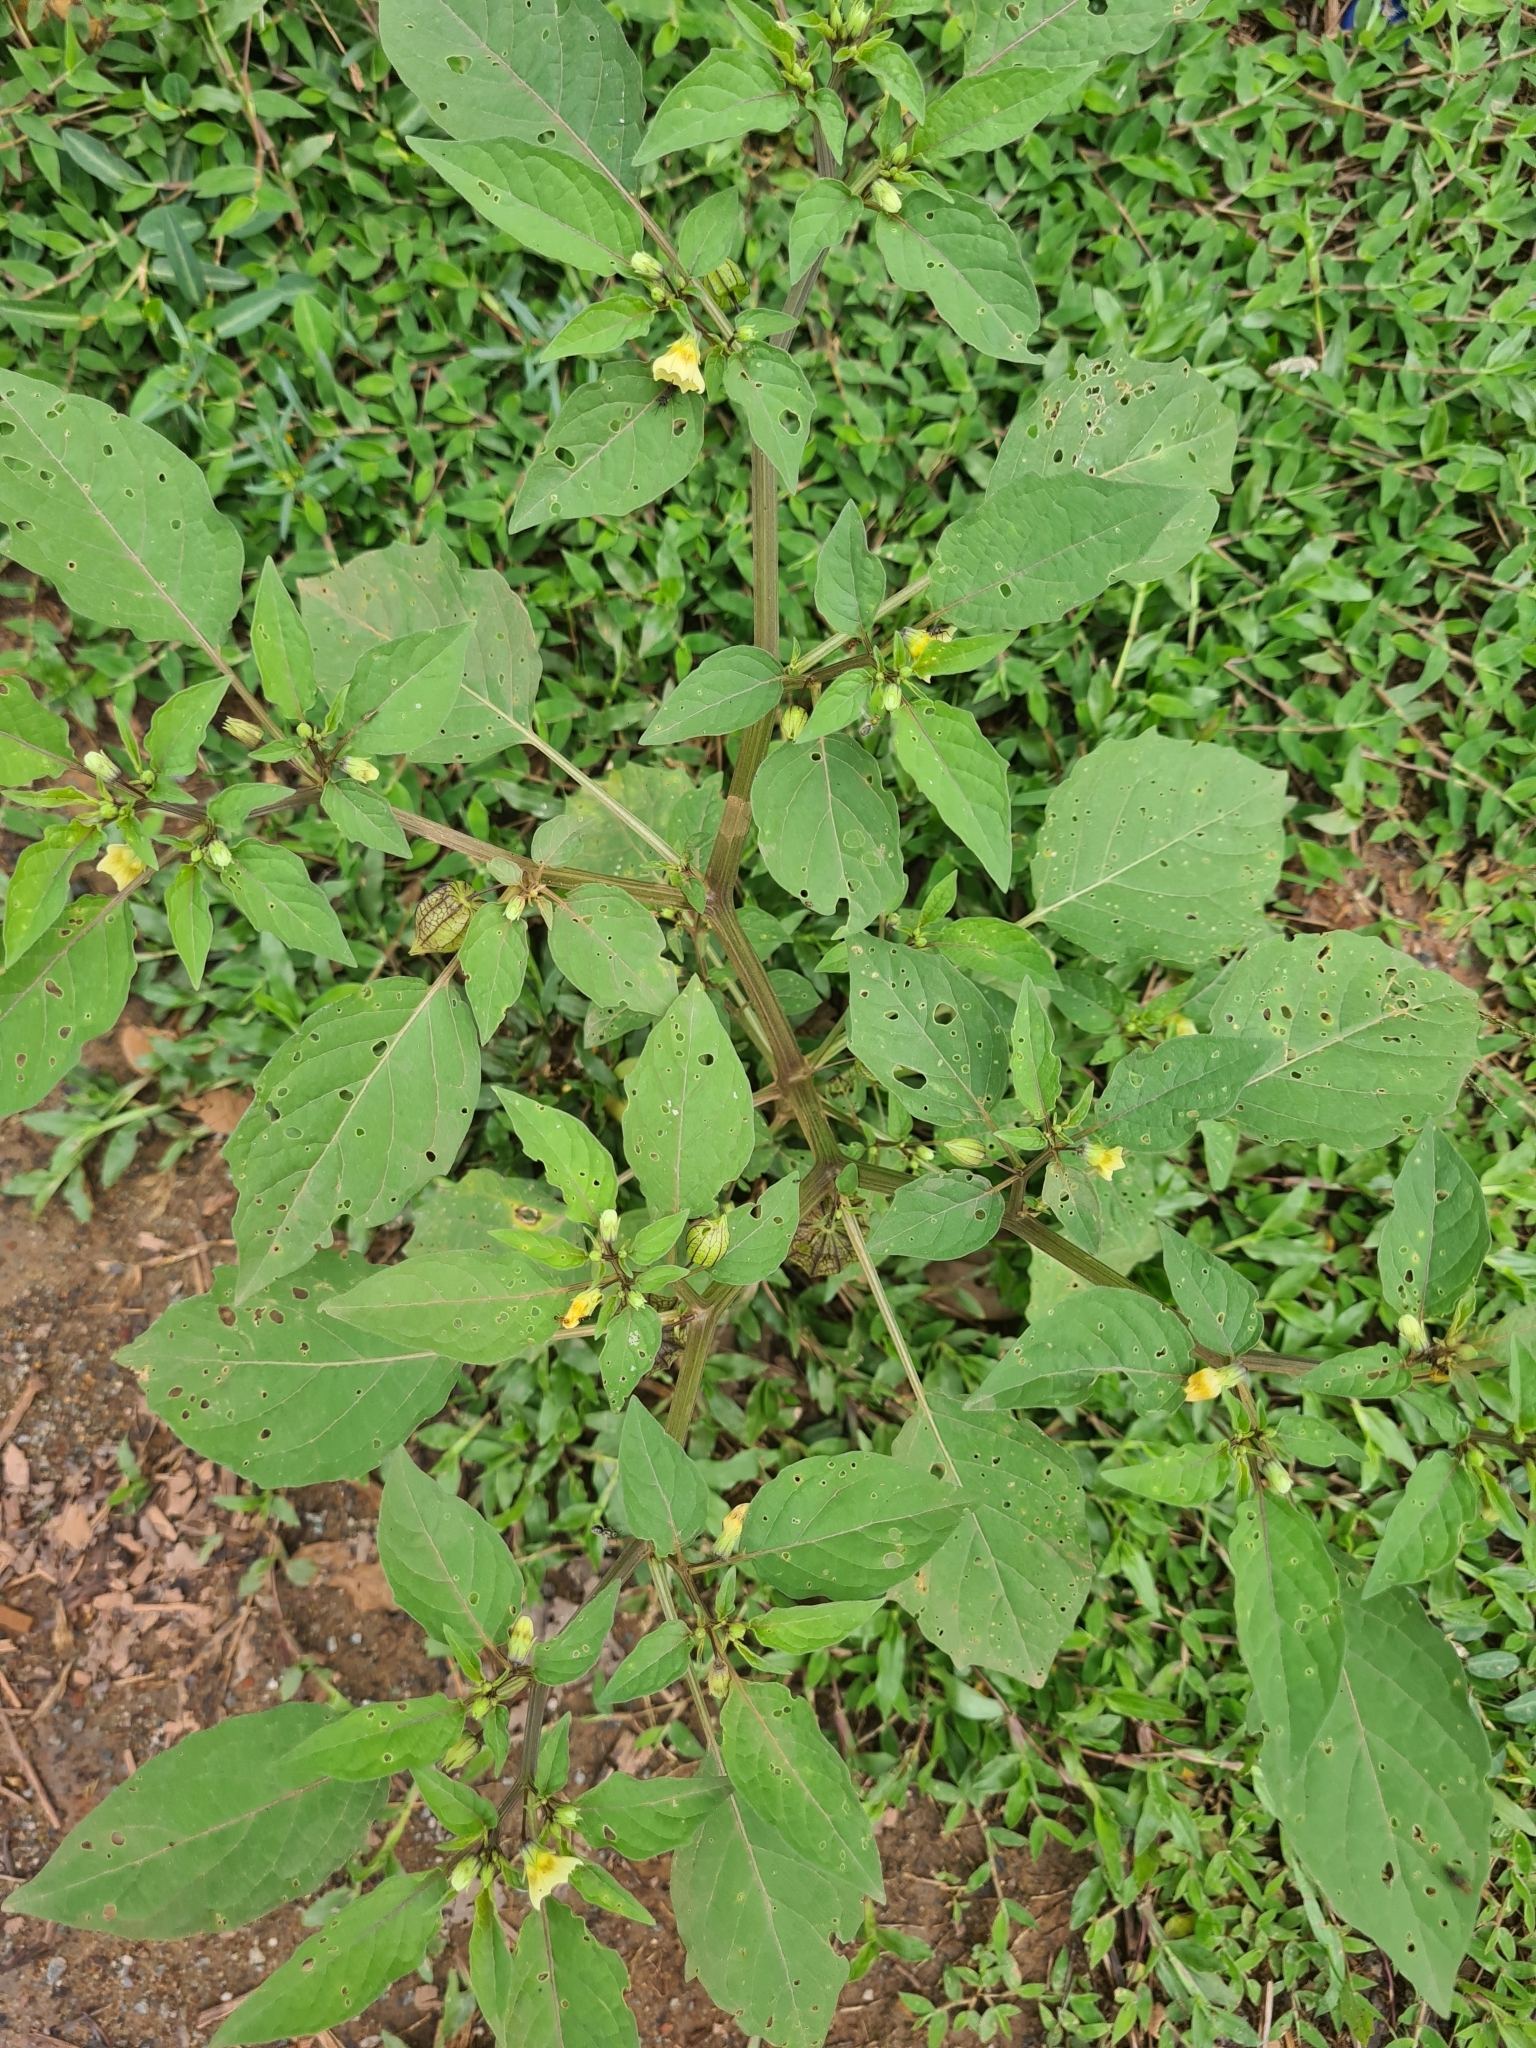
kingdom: Plantae
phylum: Tracheophyta
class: Magnoliopsida
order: Solanales
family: Solanaceae
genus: Physalis
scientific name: Physalis angulata
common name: Angular winter-cherry
